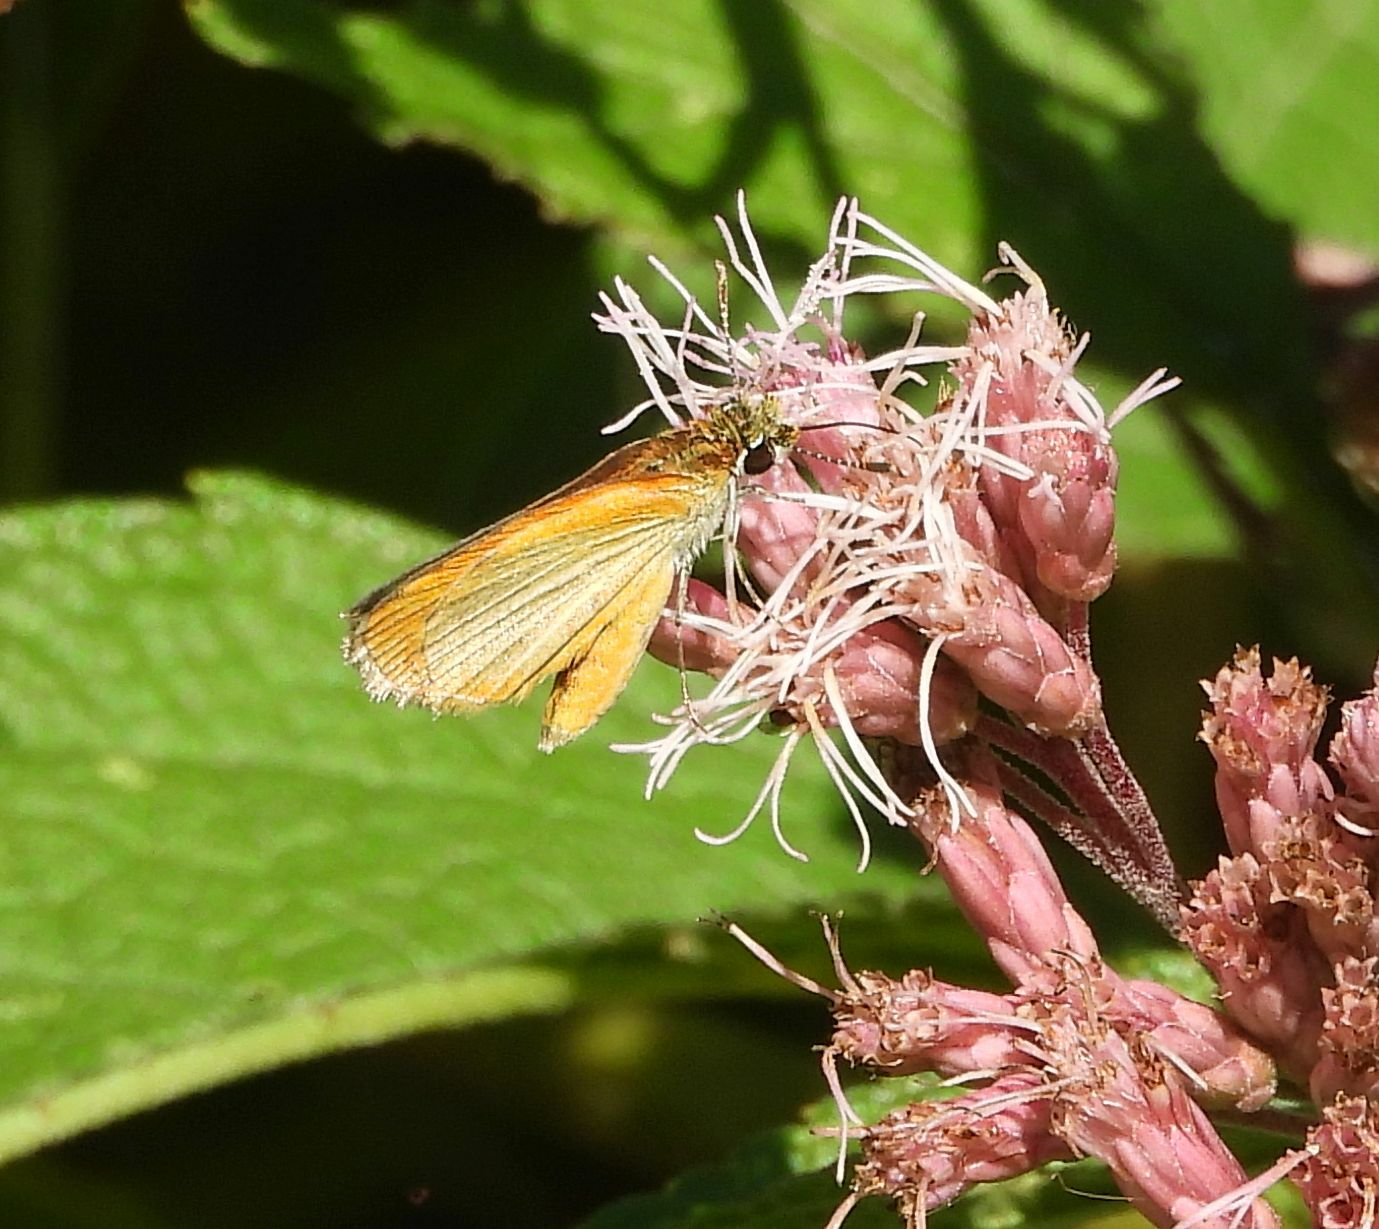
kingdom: Animalia
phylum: Arthropoda
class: Insecta
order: Lepidoptera
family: Hesperiidae
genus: Ancyloxypha
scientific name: Ancyloxypha numitor
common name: Least skipper
